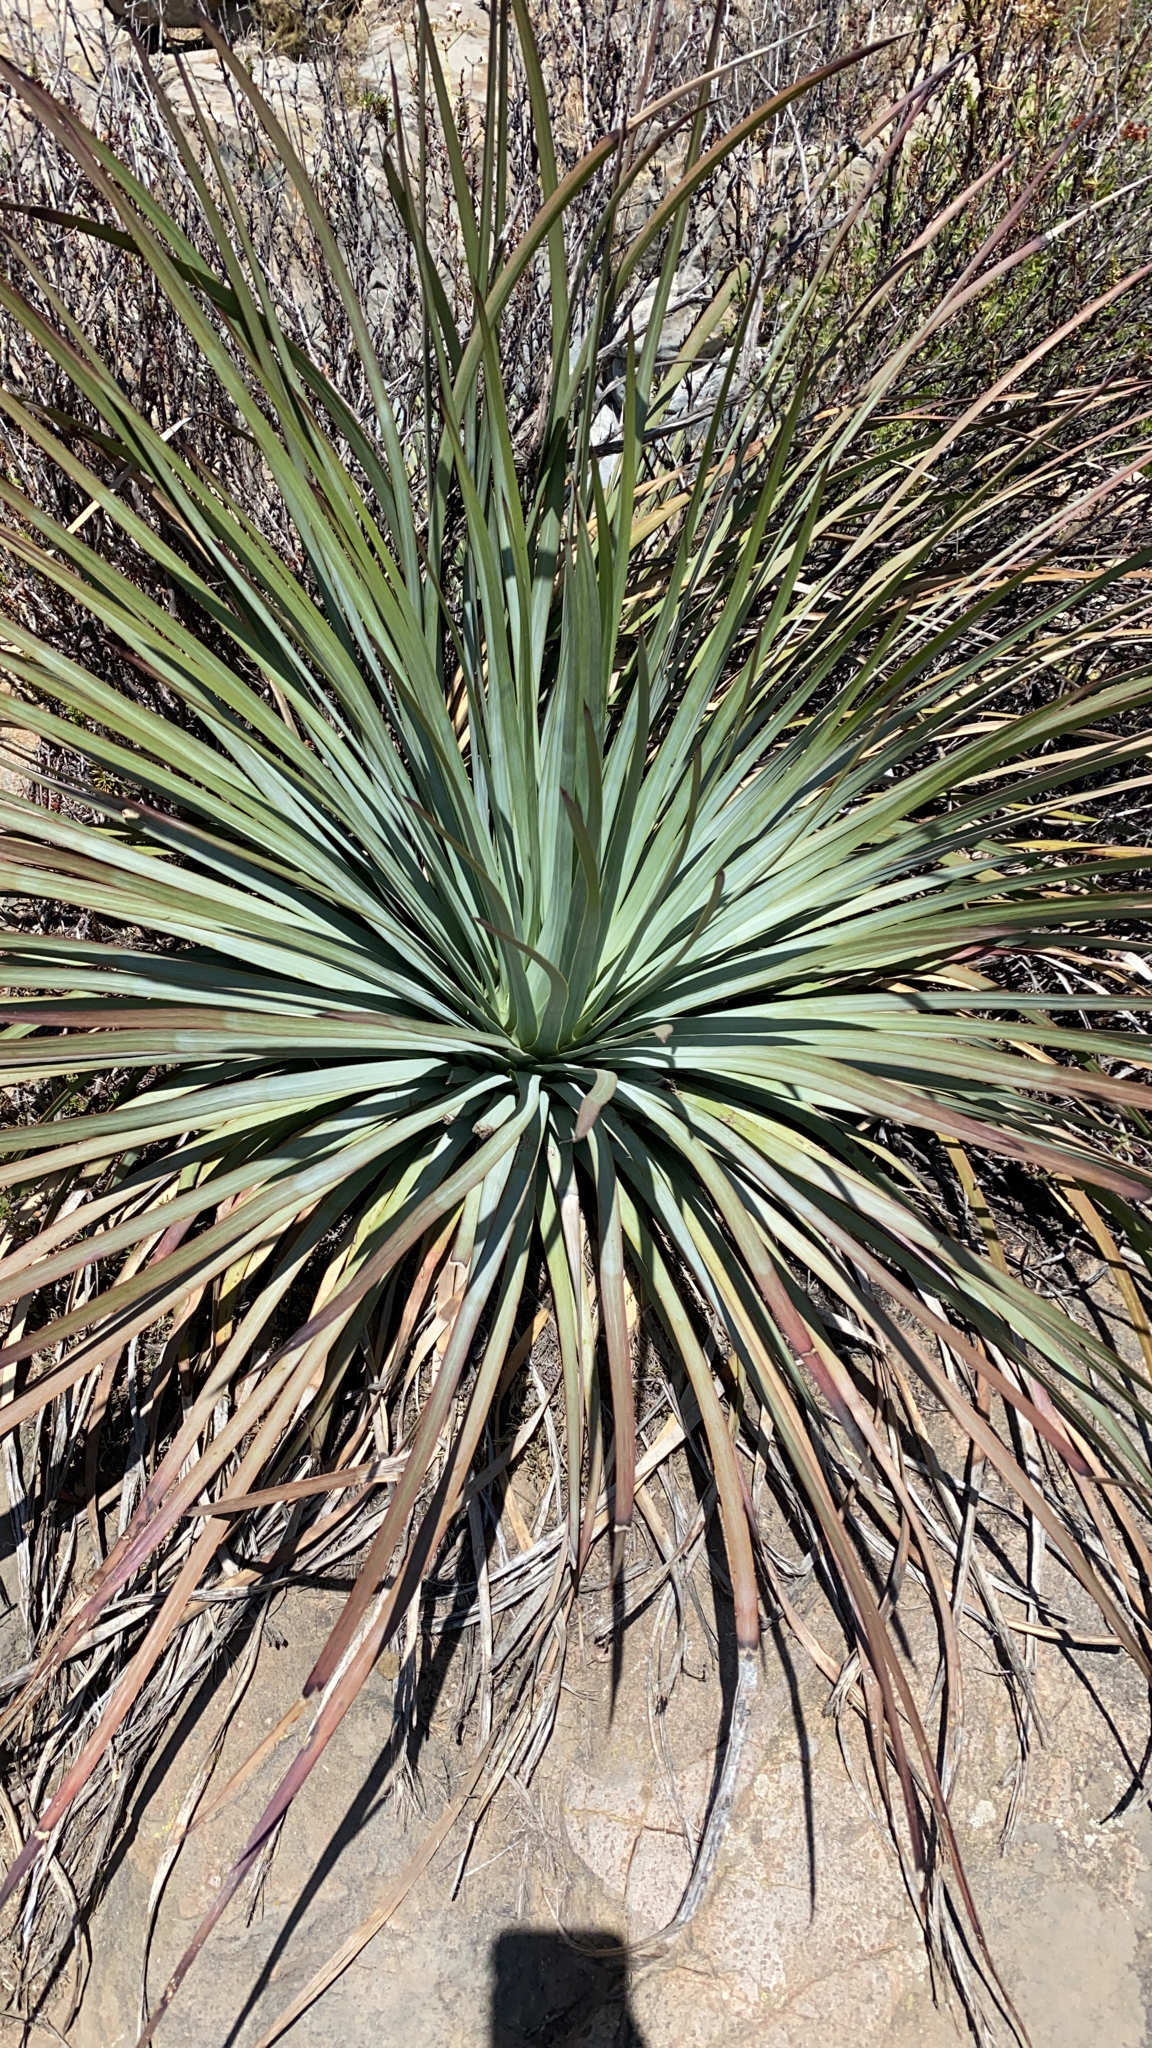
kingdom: Plantae
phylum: Tracheophyta
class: Liliopsida
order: Asparagales
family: Asparagaceae
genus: Hesperoyucca
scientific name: Hesperoyucca whipplei
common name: Our lord's-candle
